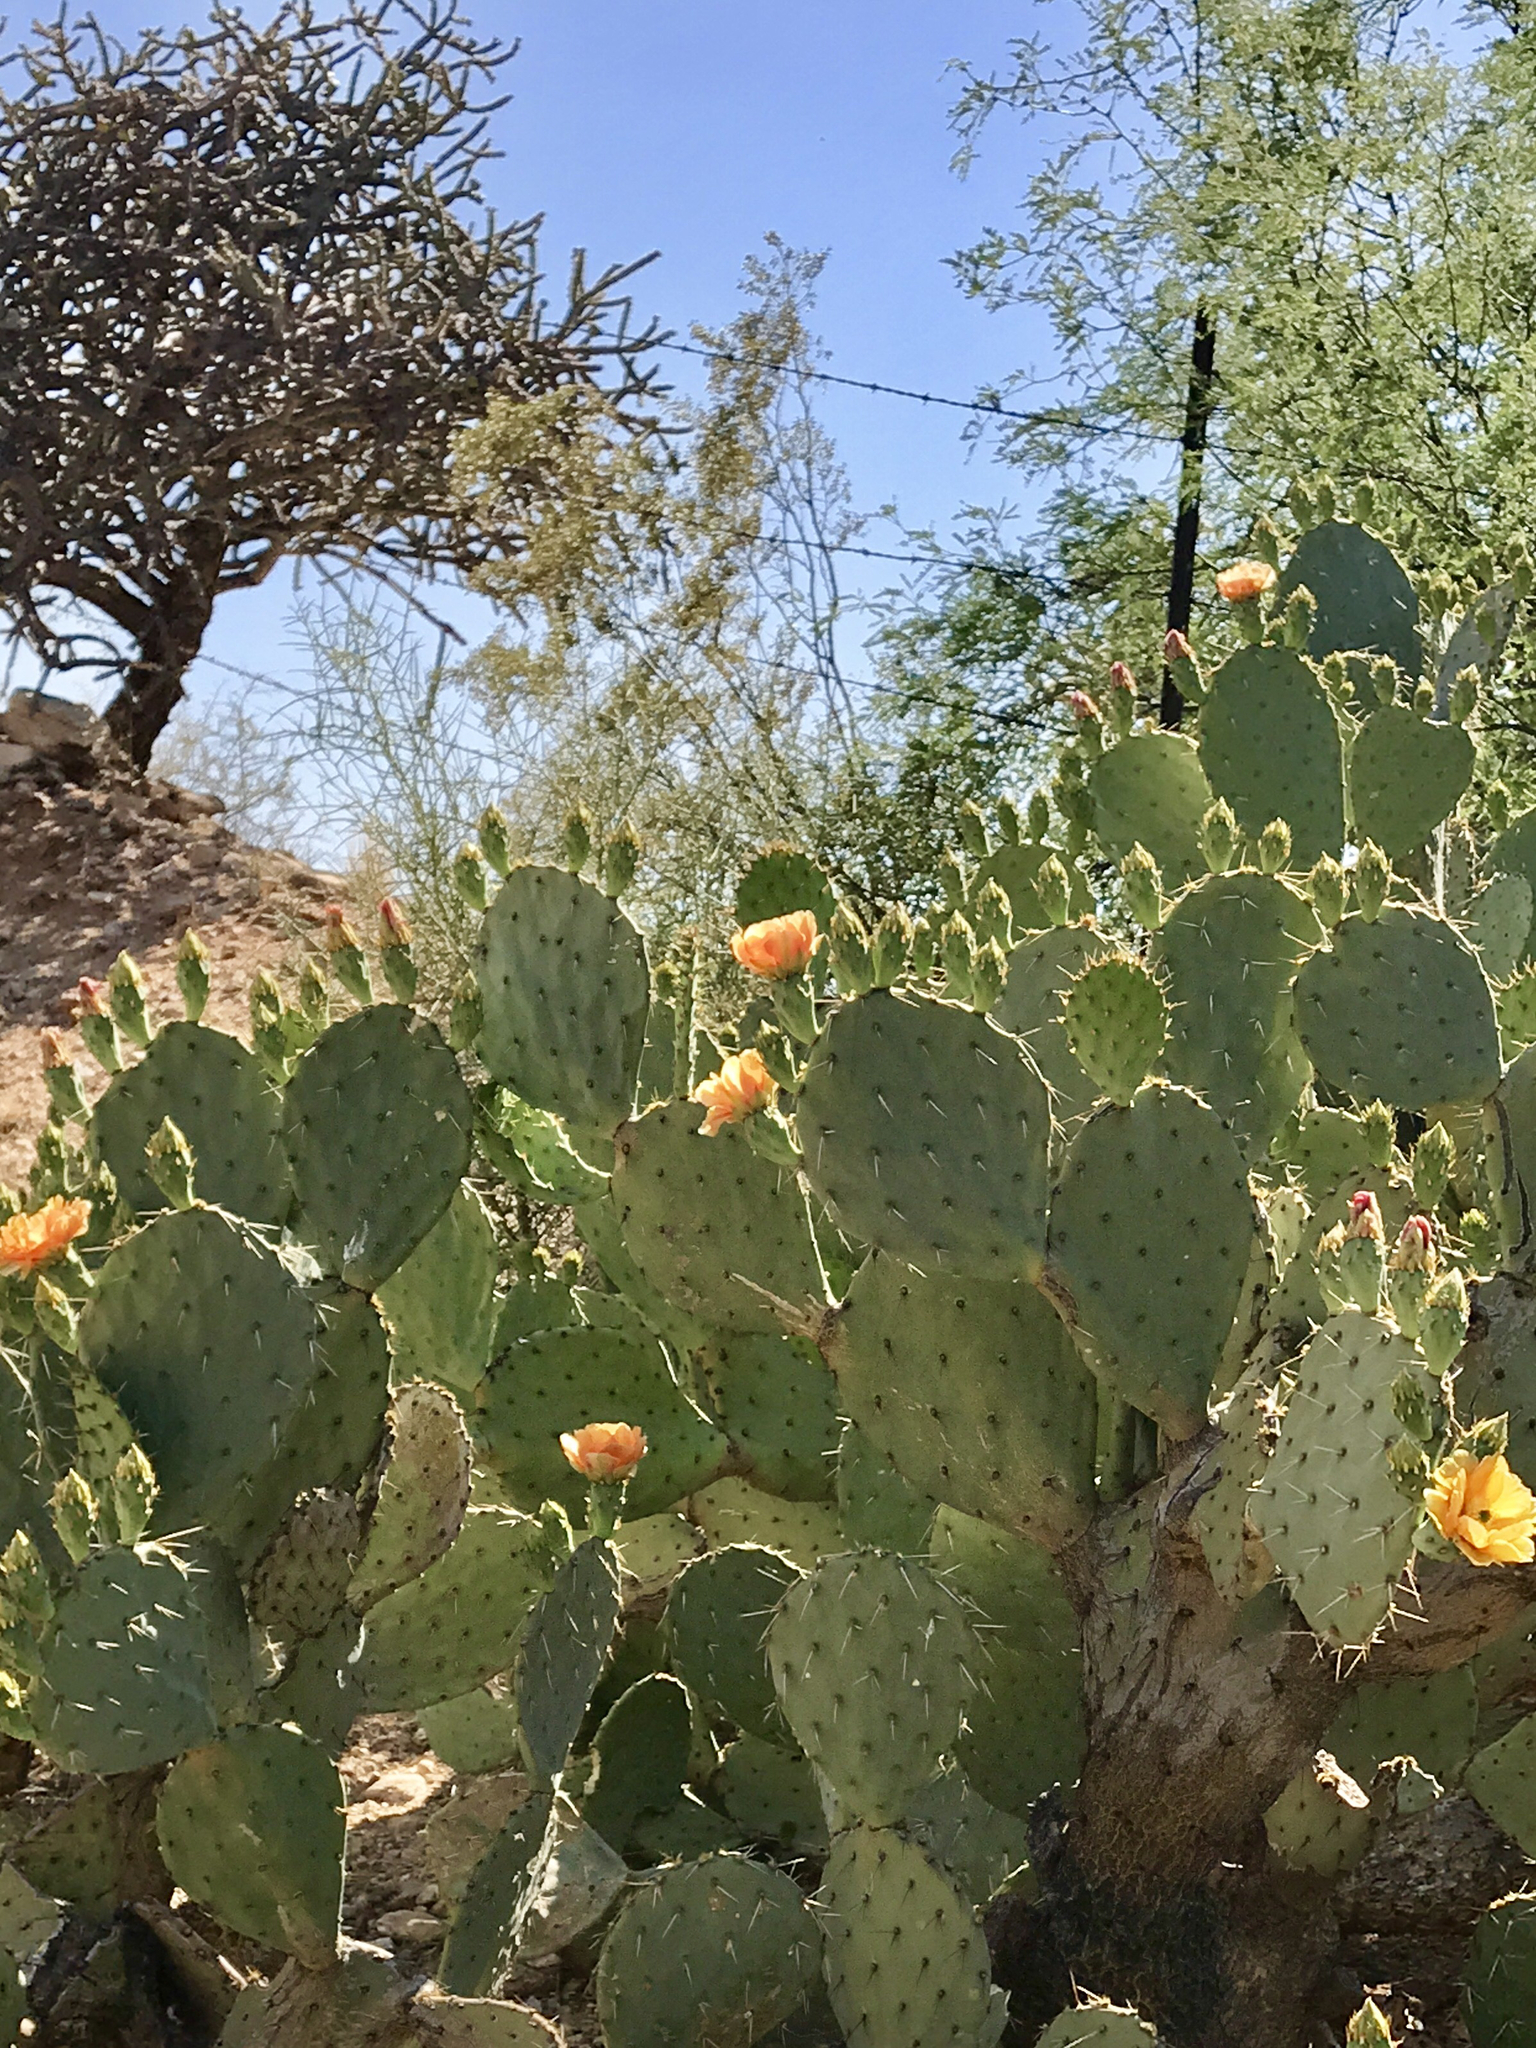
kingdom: Plantae
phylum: Tracheophyta
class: Magnoliopsida
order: Caryophyllales
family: Cactaceae
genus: Opuntia
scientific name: Opuntia engelmannii
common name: Cactus-apple
